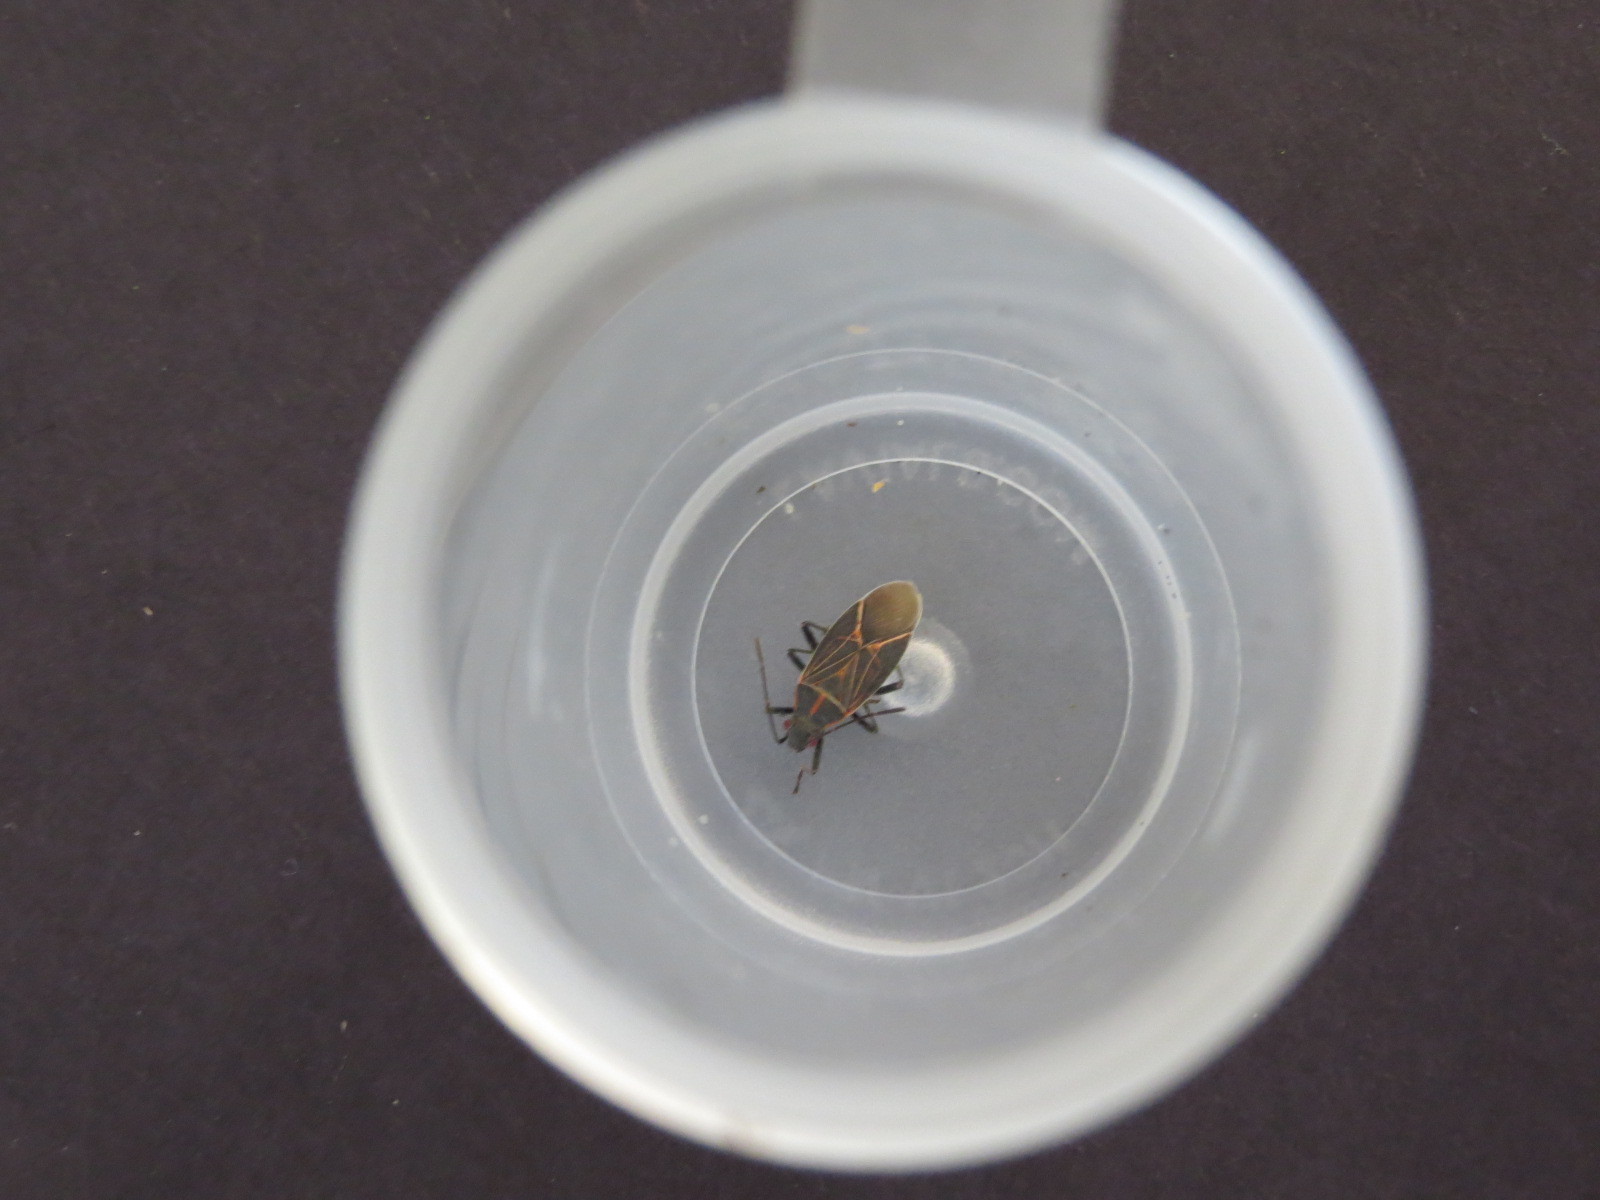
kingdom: Animalia
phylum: Arthropoda
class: Insecta
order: Hemiptera
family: Rhopalidae
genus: Boisea
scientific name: Boisea rubrolineata
